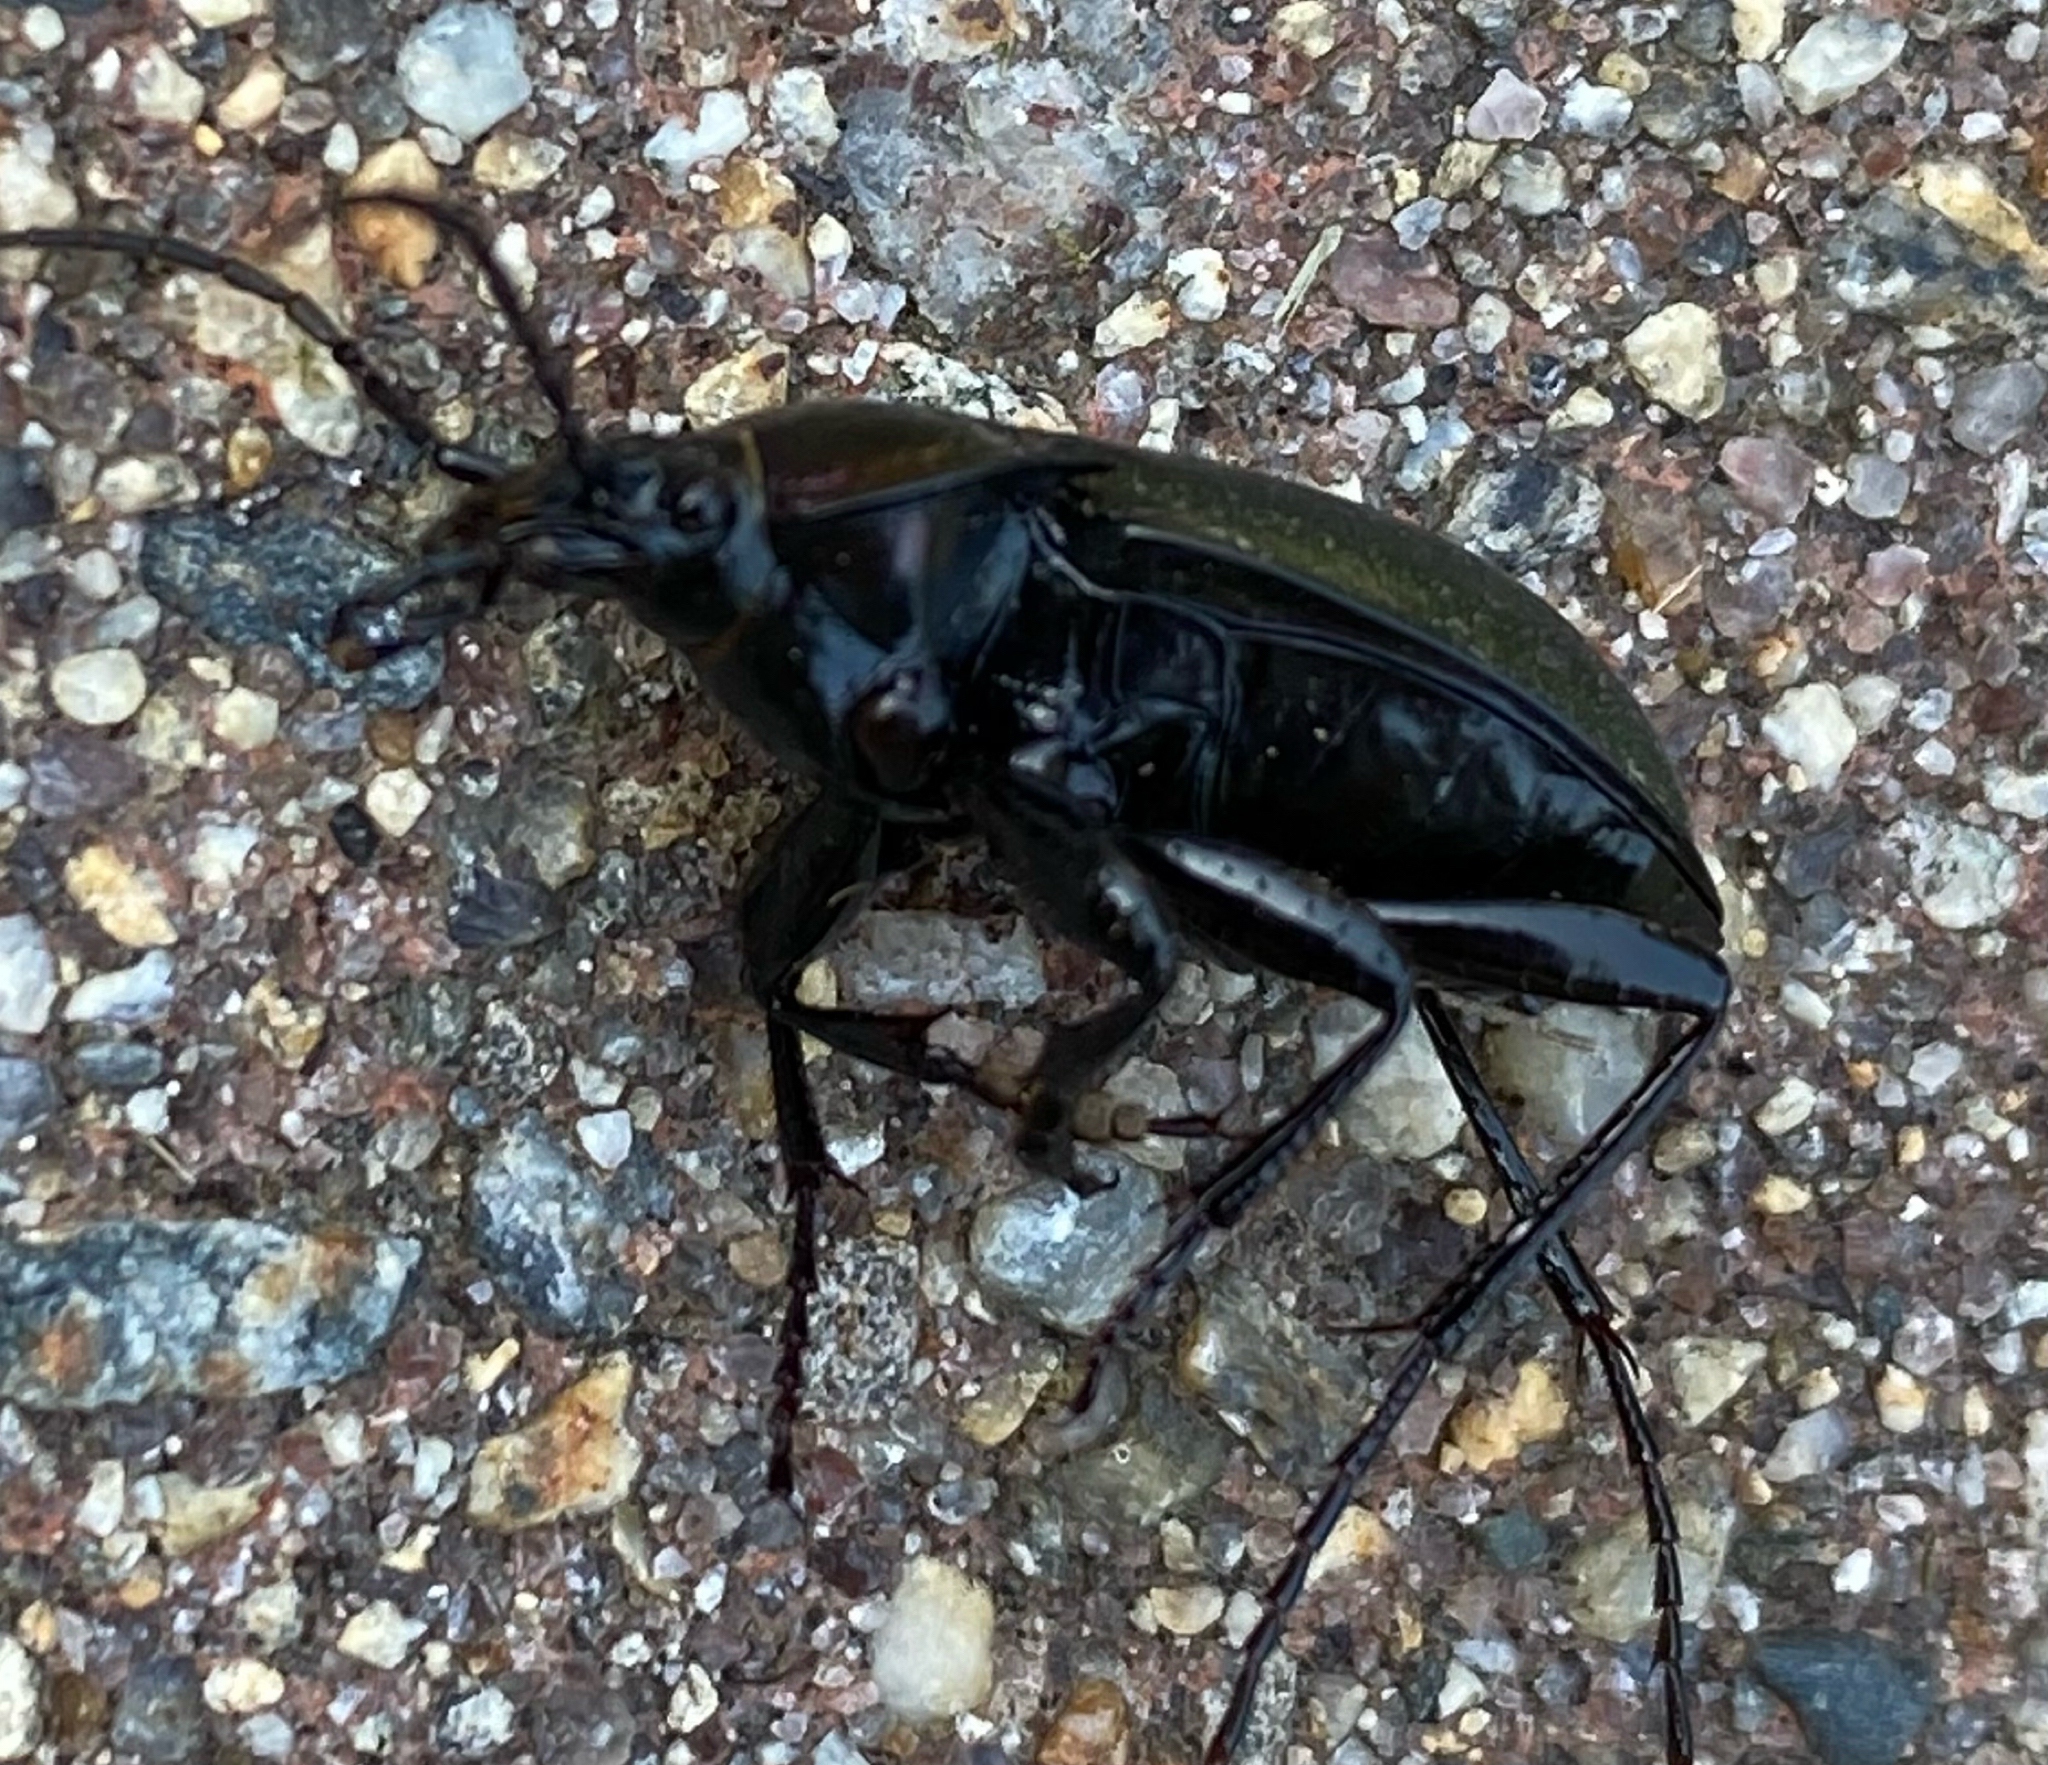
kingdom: Animalia
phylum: Arthropoda
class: Insecta
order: Coleoptera
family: Carabidae
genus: Carabus
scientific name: Carabus nemoralis
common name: European ground beetle
